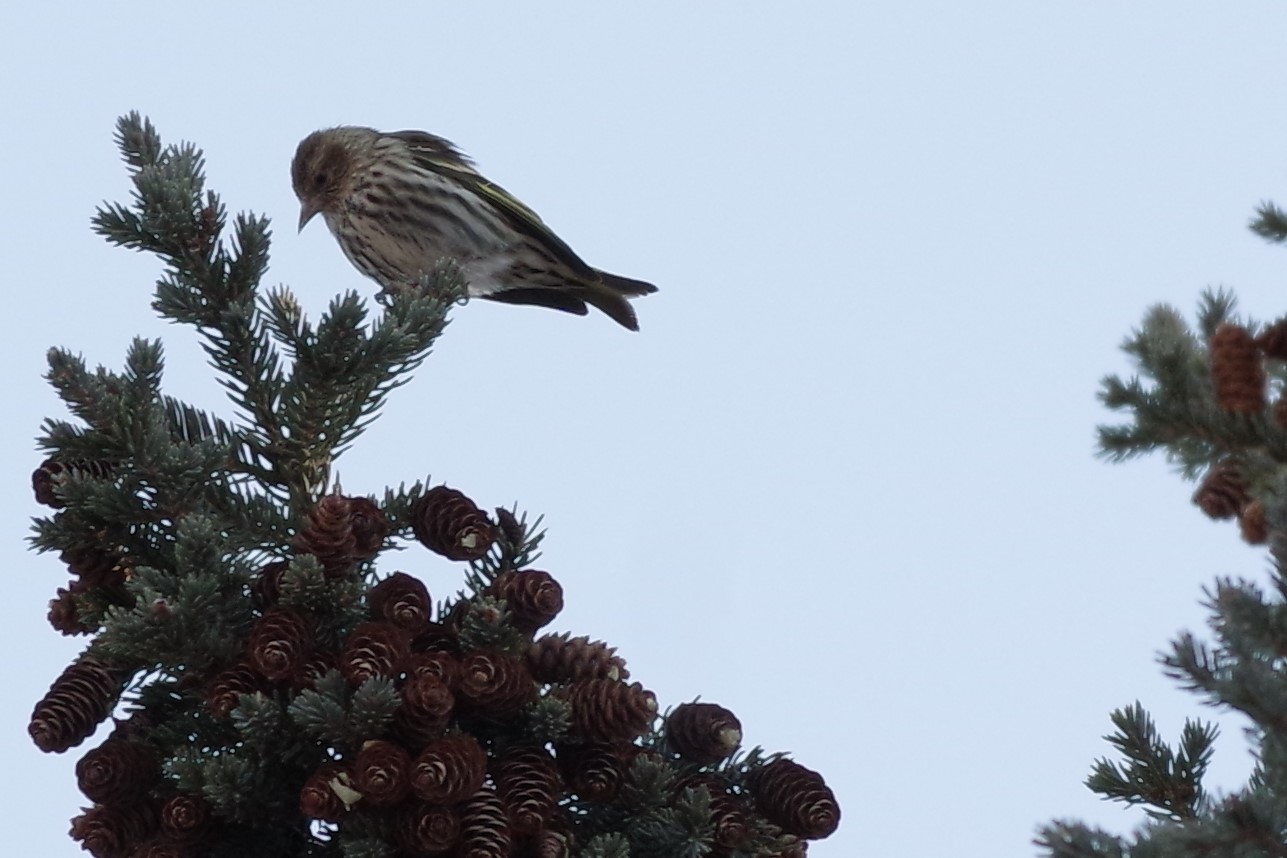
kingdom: Animalia
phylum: Chordata
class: Aves
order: Passeriformes
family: Fringillidae
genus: Spinus
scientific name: Spinus pinus
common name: Pine siskin
